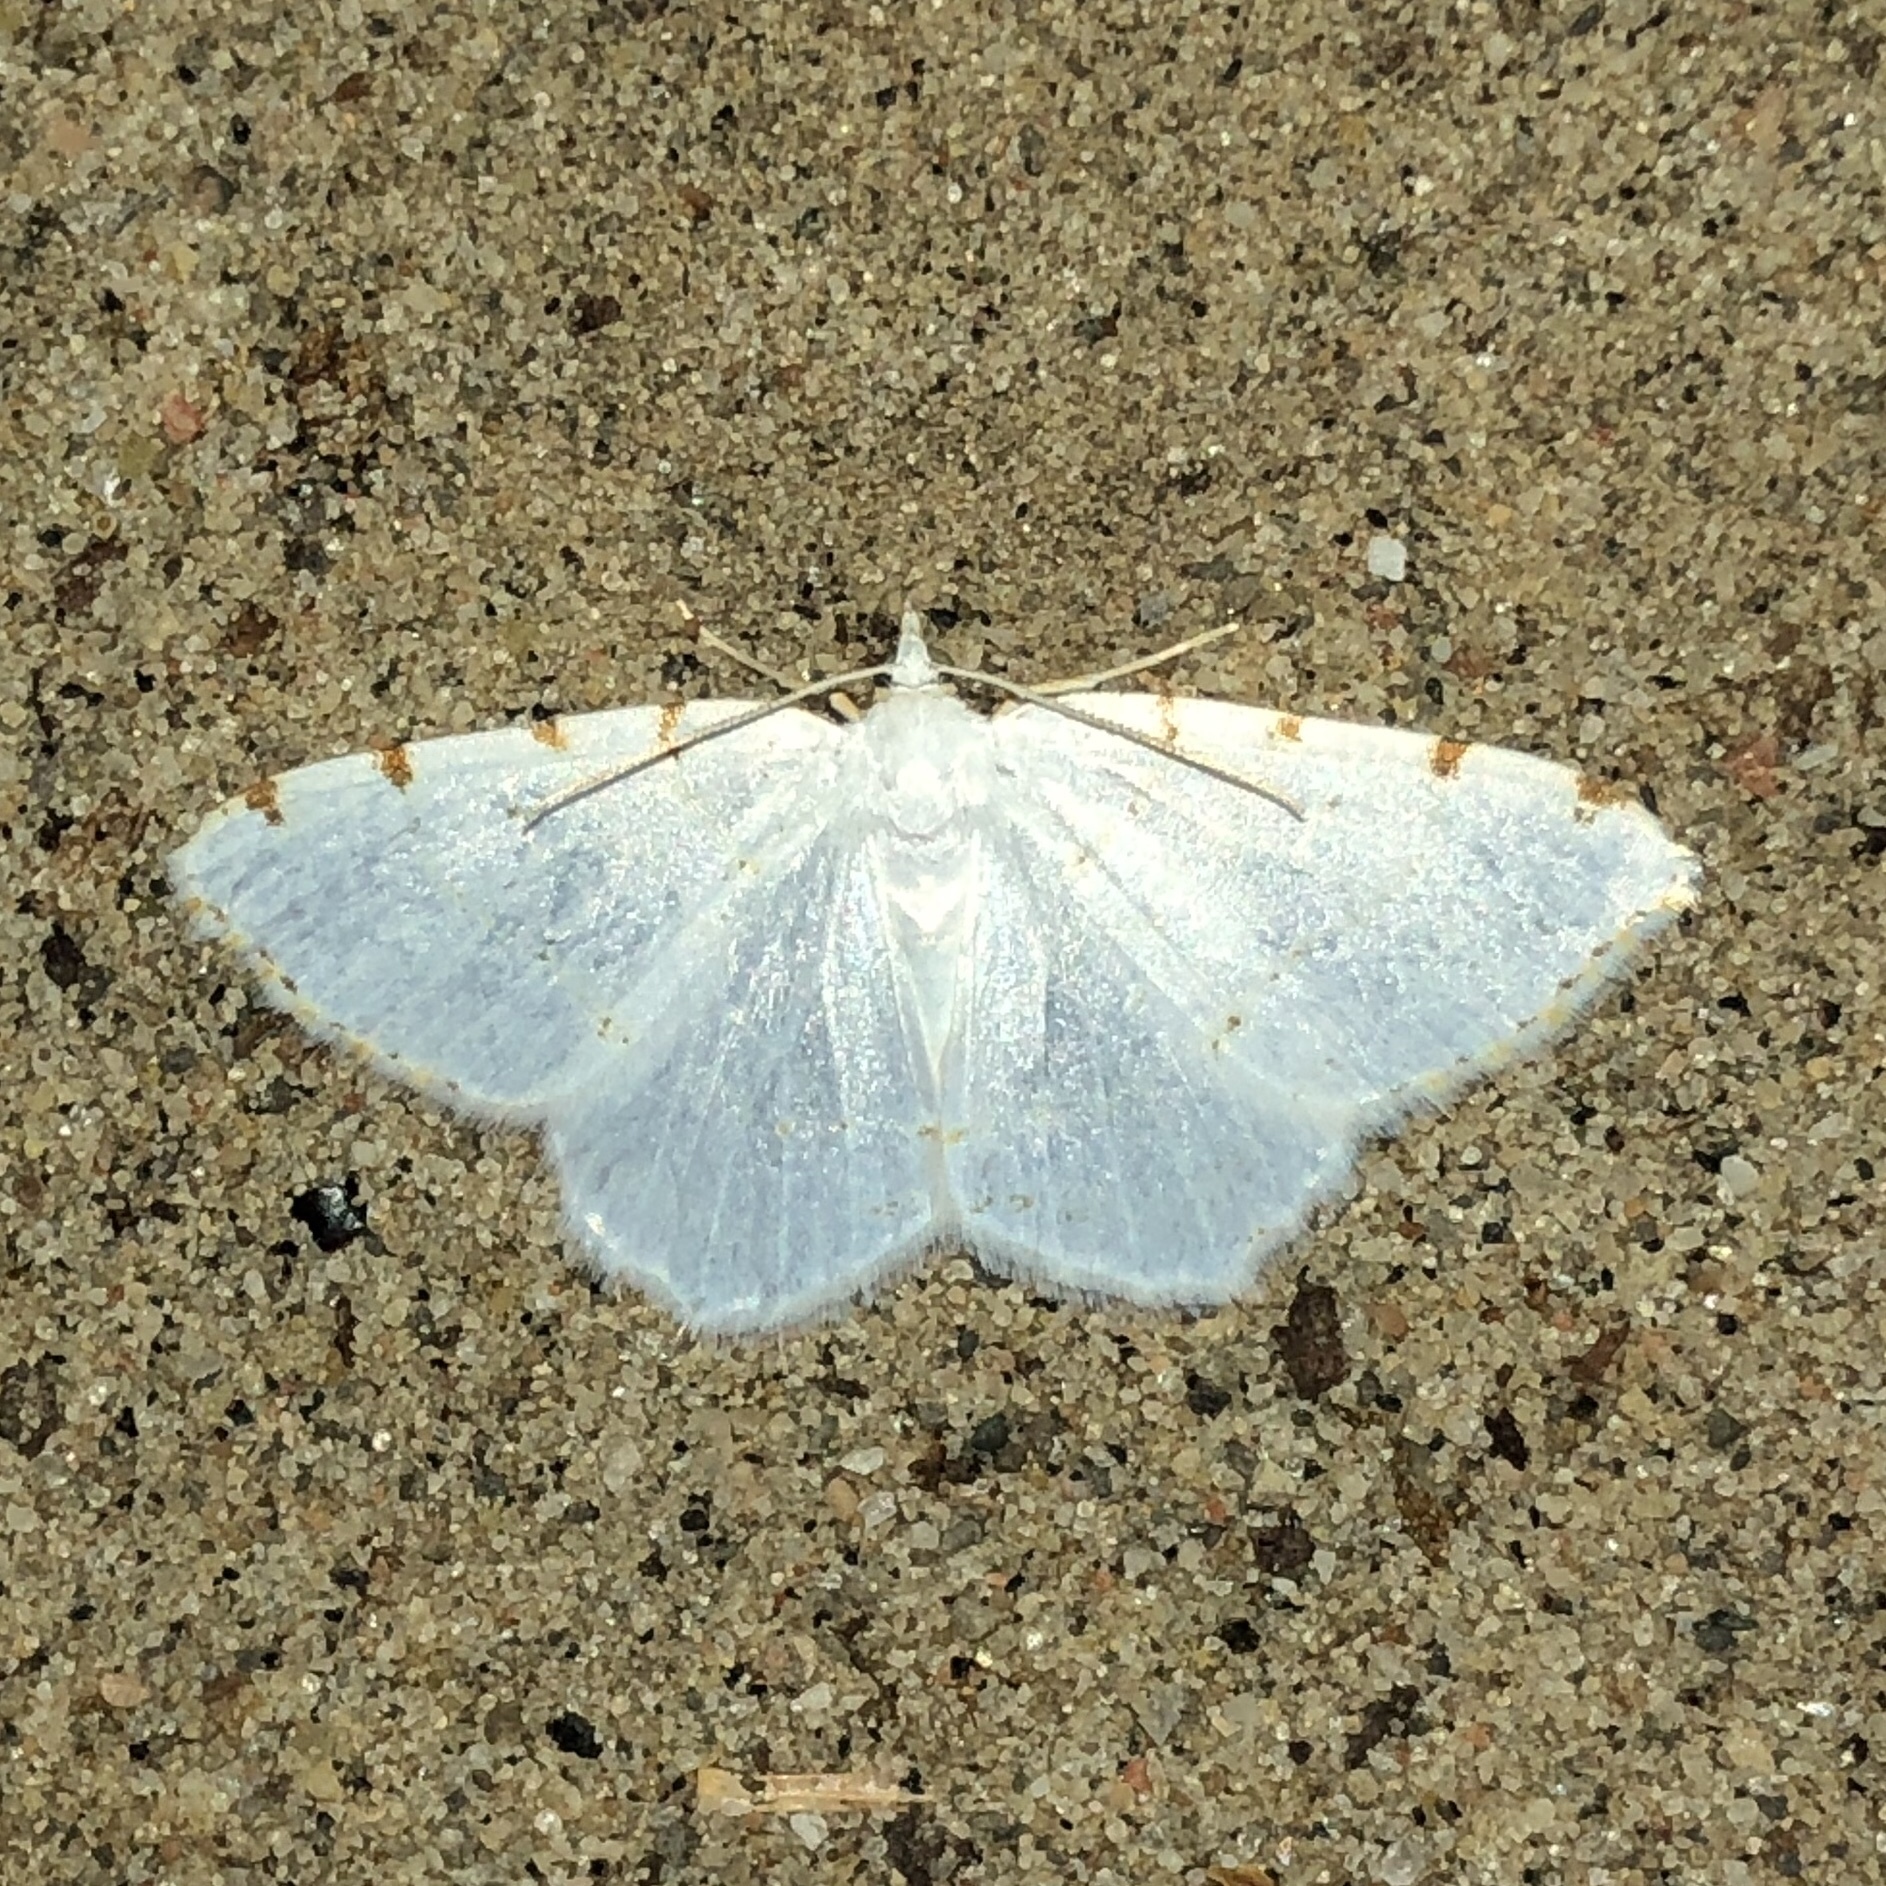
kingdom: Animalia
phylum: Arthropoda
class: Insecta
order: Lepidoptera
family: Geometridae
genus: Macaria
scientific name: Macaria pustularia
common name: Lesser maple spanworm moth
